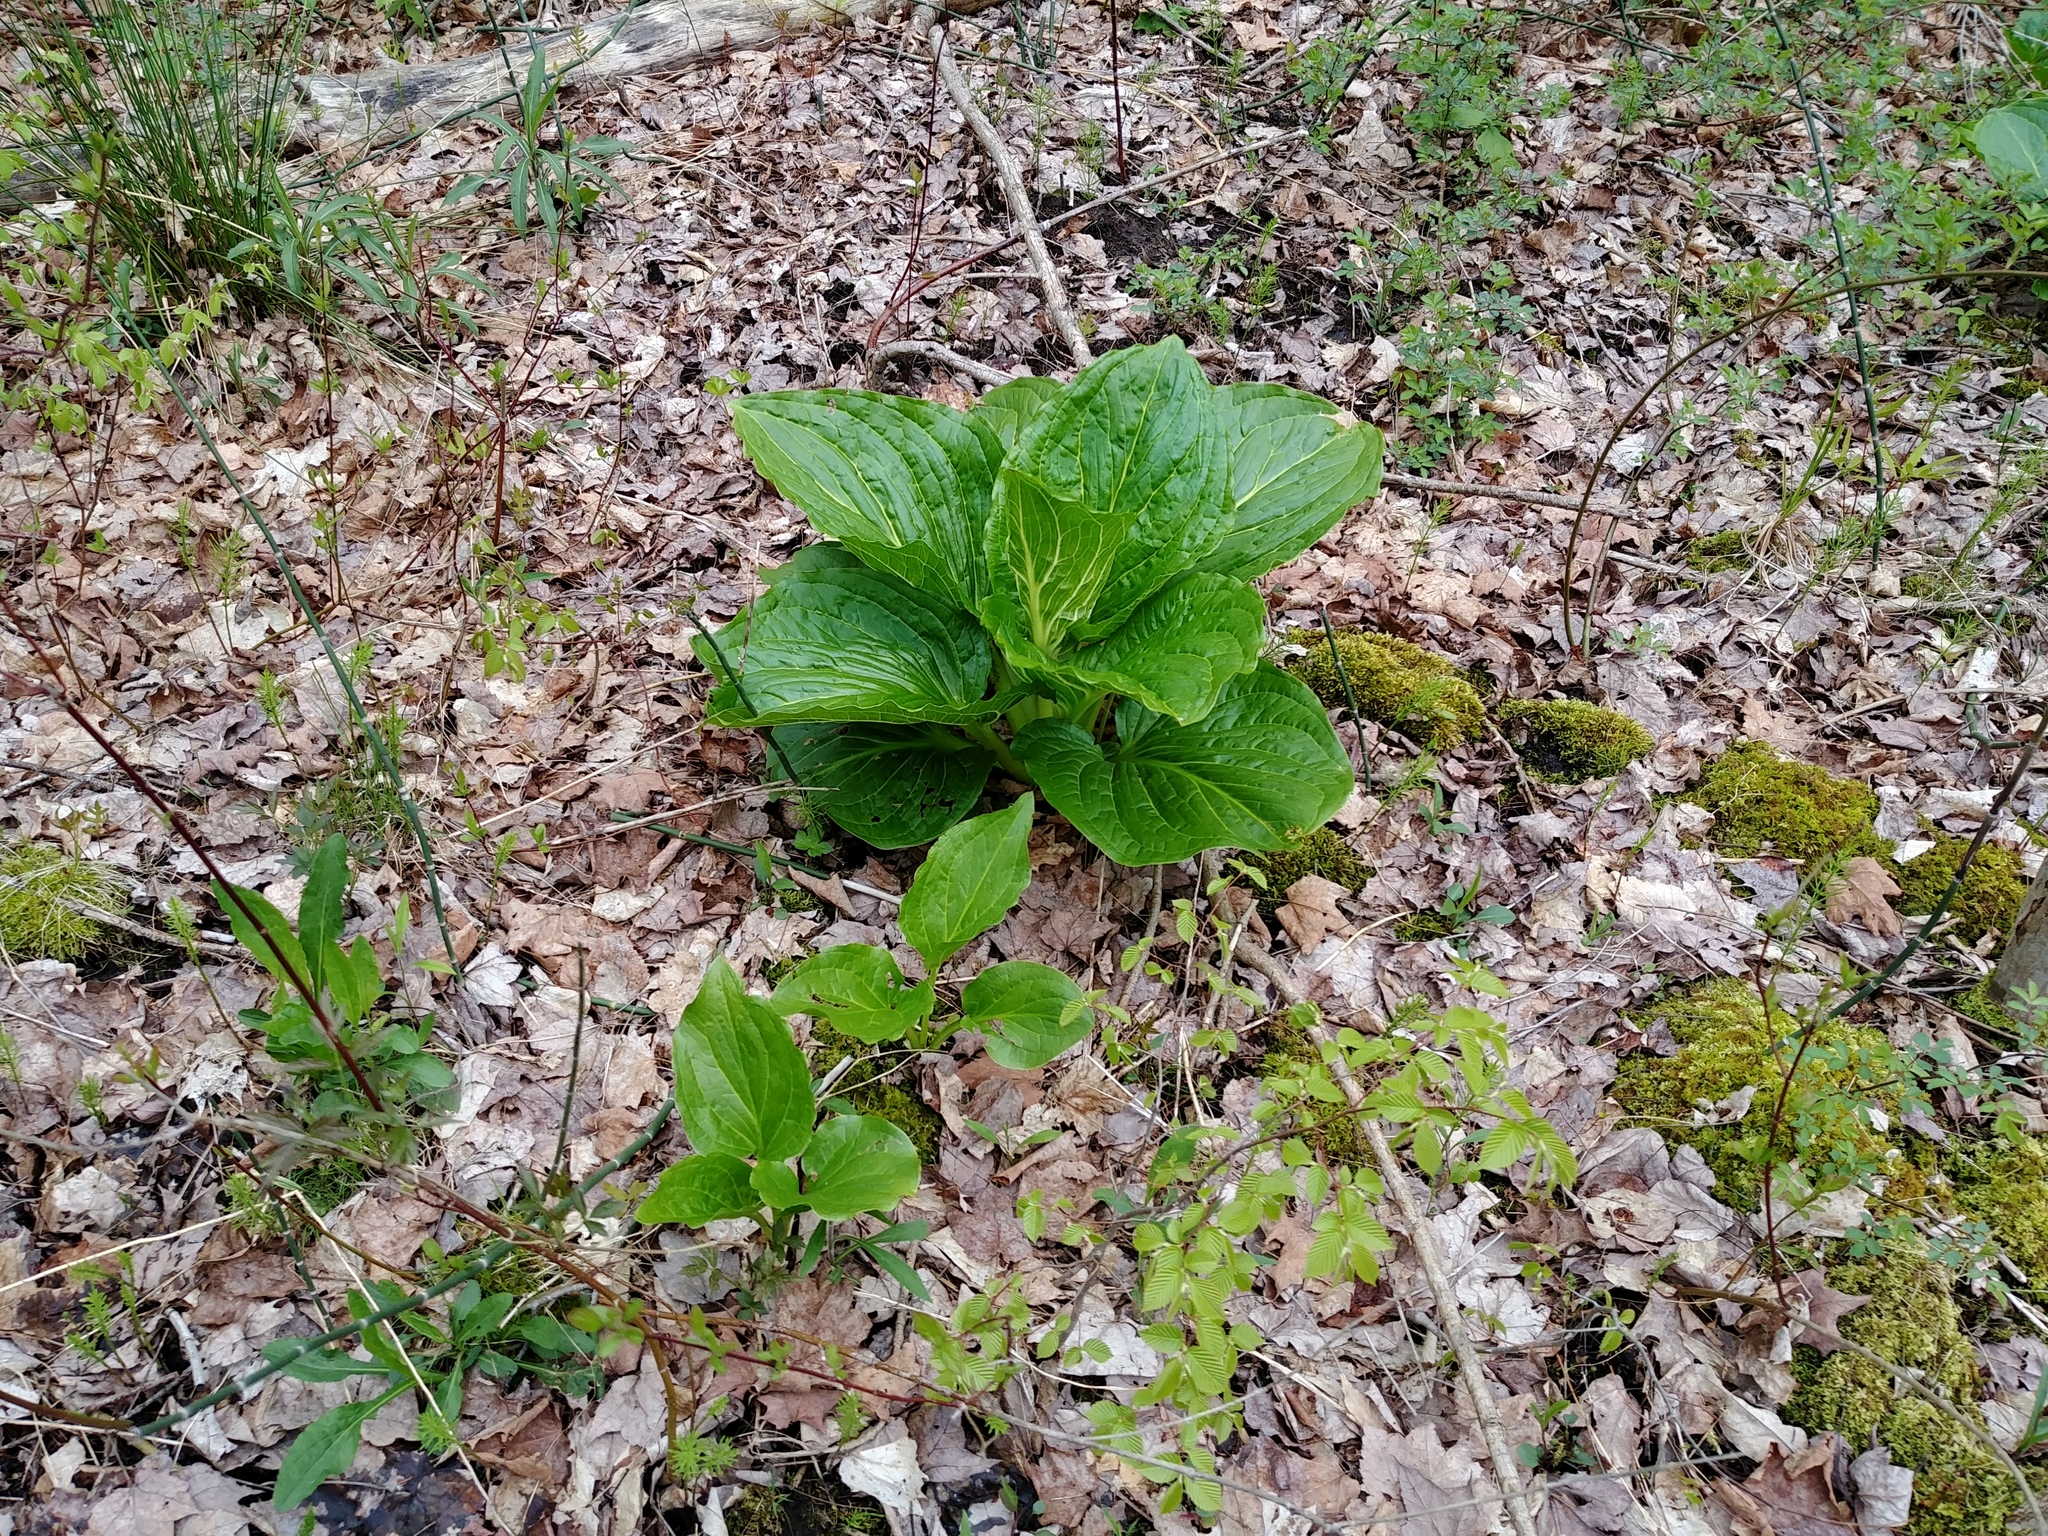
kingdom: Plantae
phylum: Tracheophyta
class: Liliopsida
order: Alismatales
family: Araceae
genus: Symplocarpus
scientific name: Symplocarpus foetidus
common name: Eastern skunk cabbage
